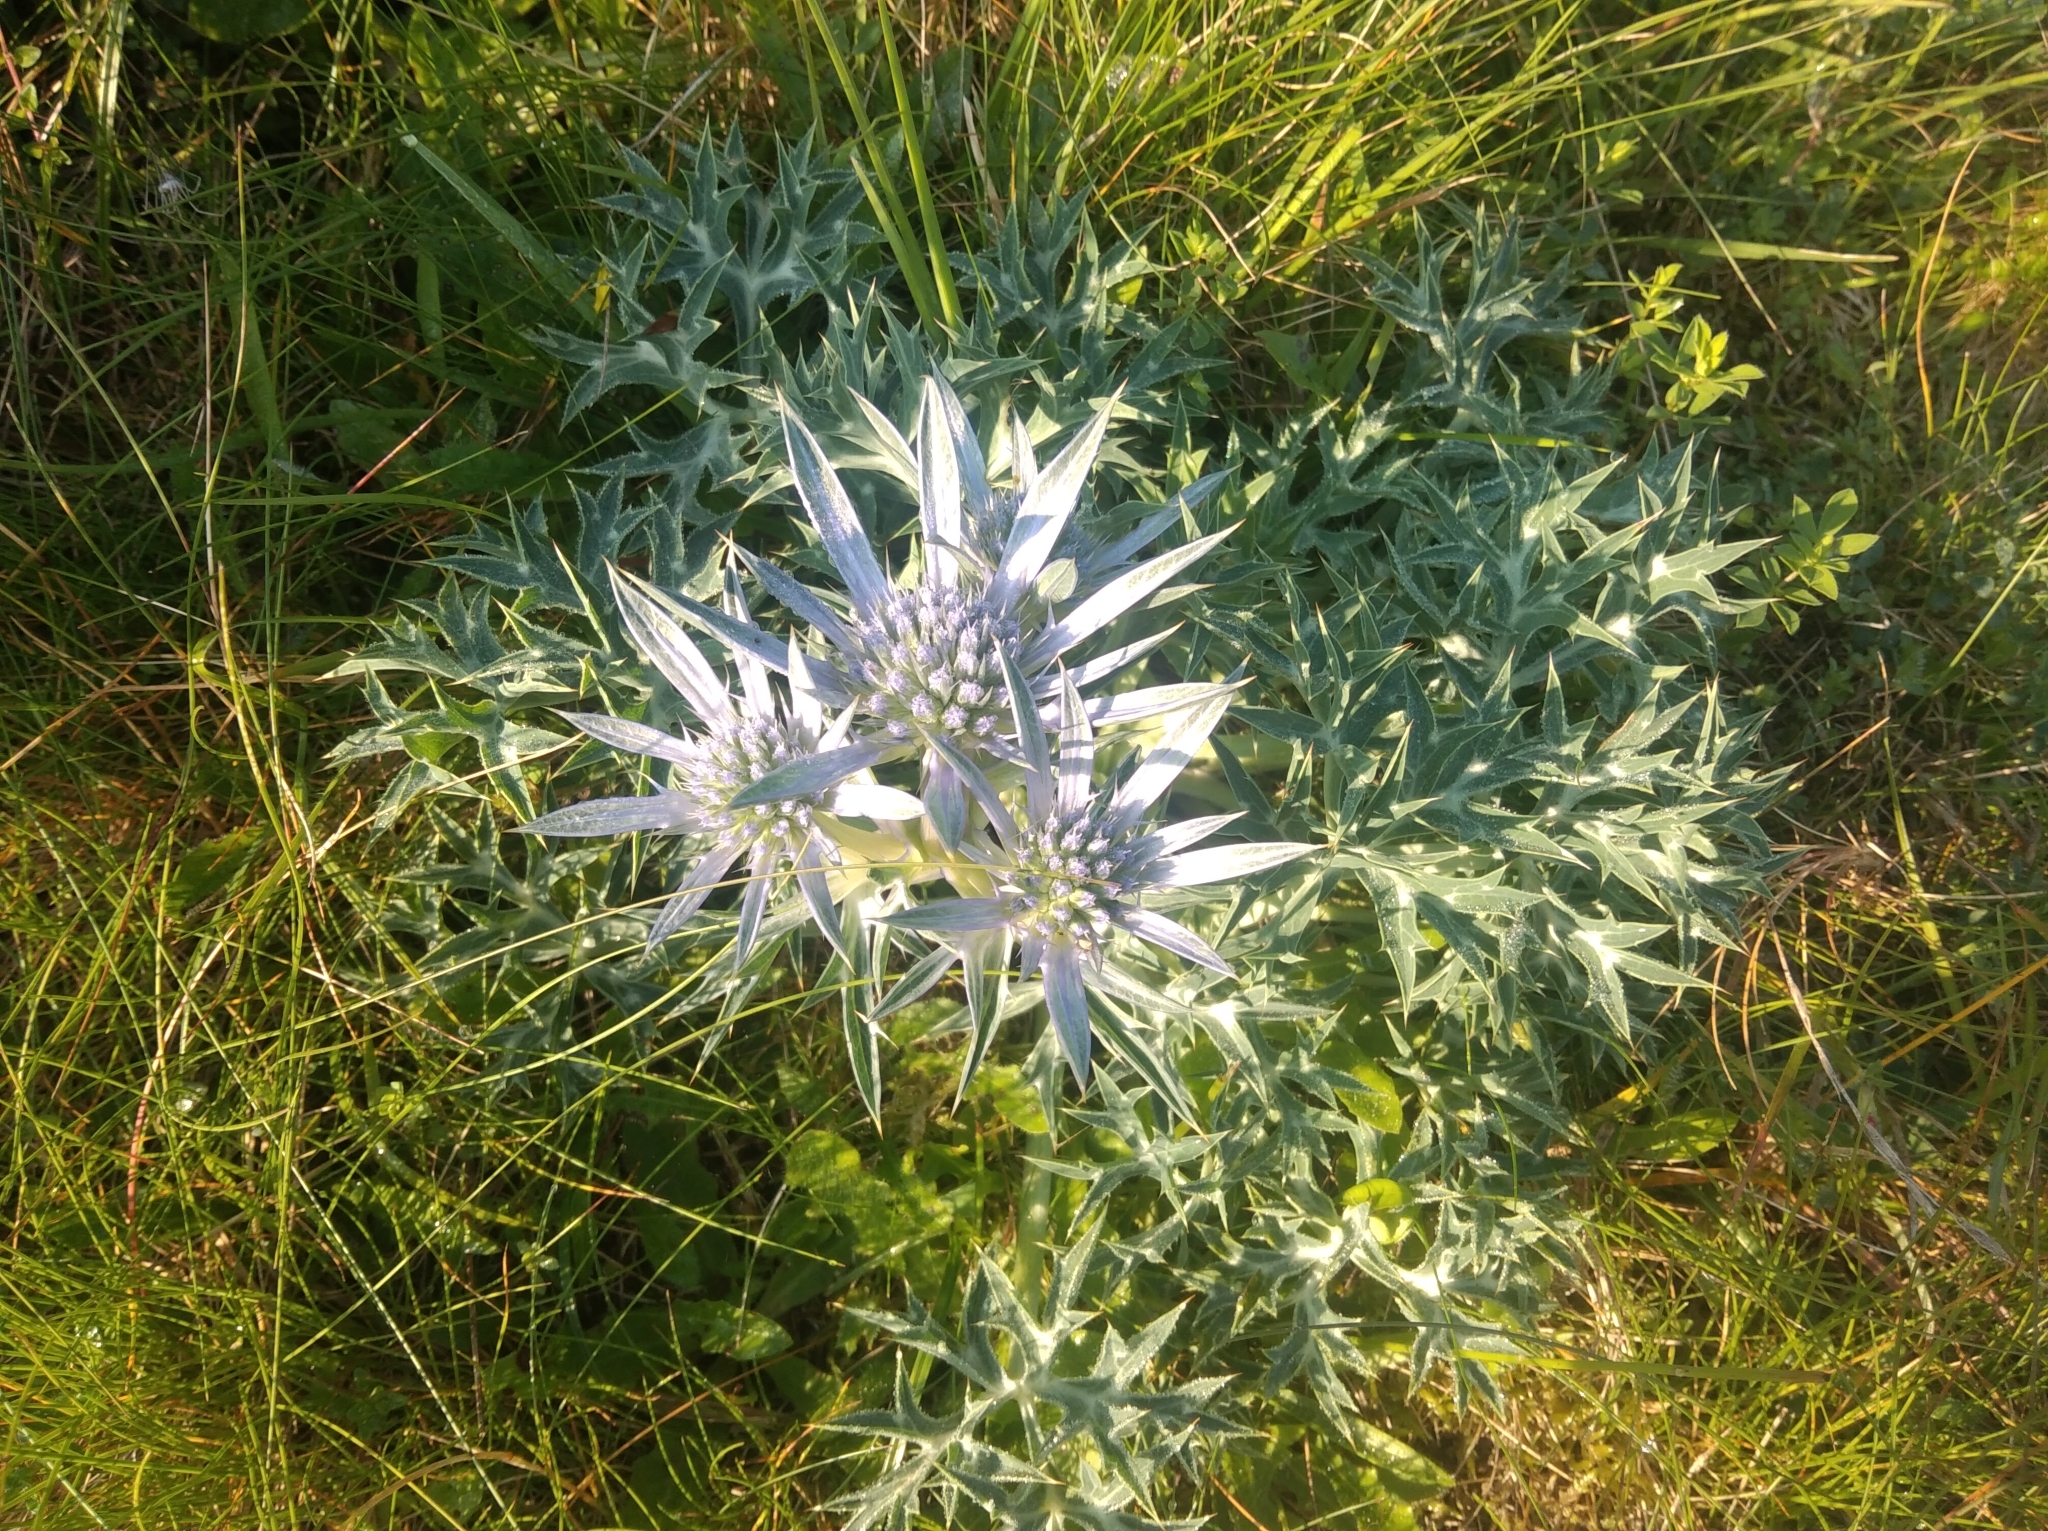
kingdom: Plantae
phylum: Tracheophyta
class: Magnoliopsida
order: Apiales
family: Apiaceae
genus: Eryngium
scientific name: Eryngium bourgatii
